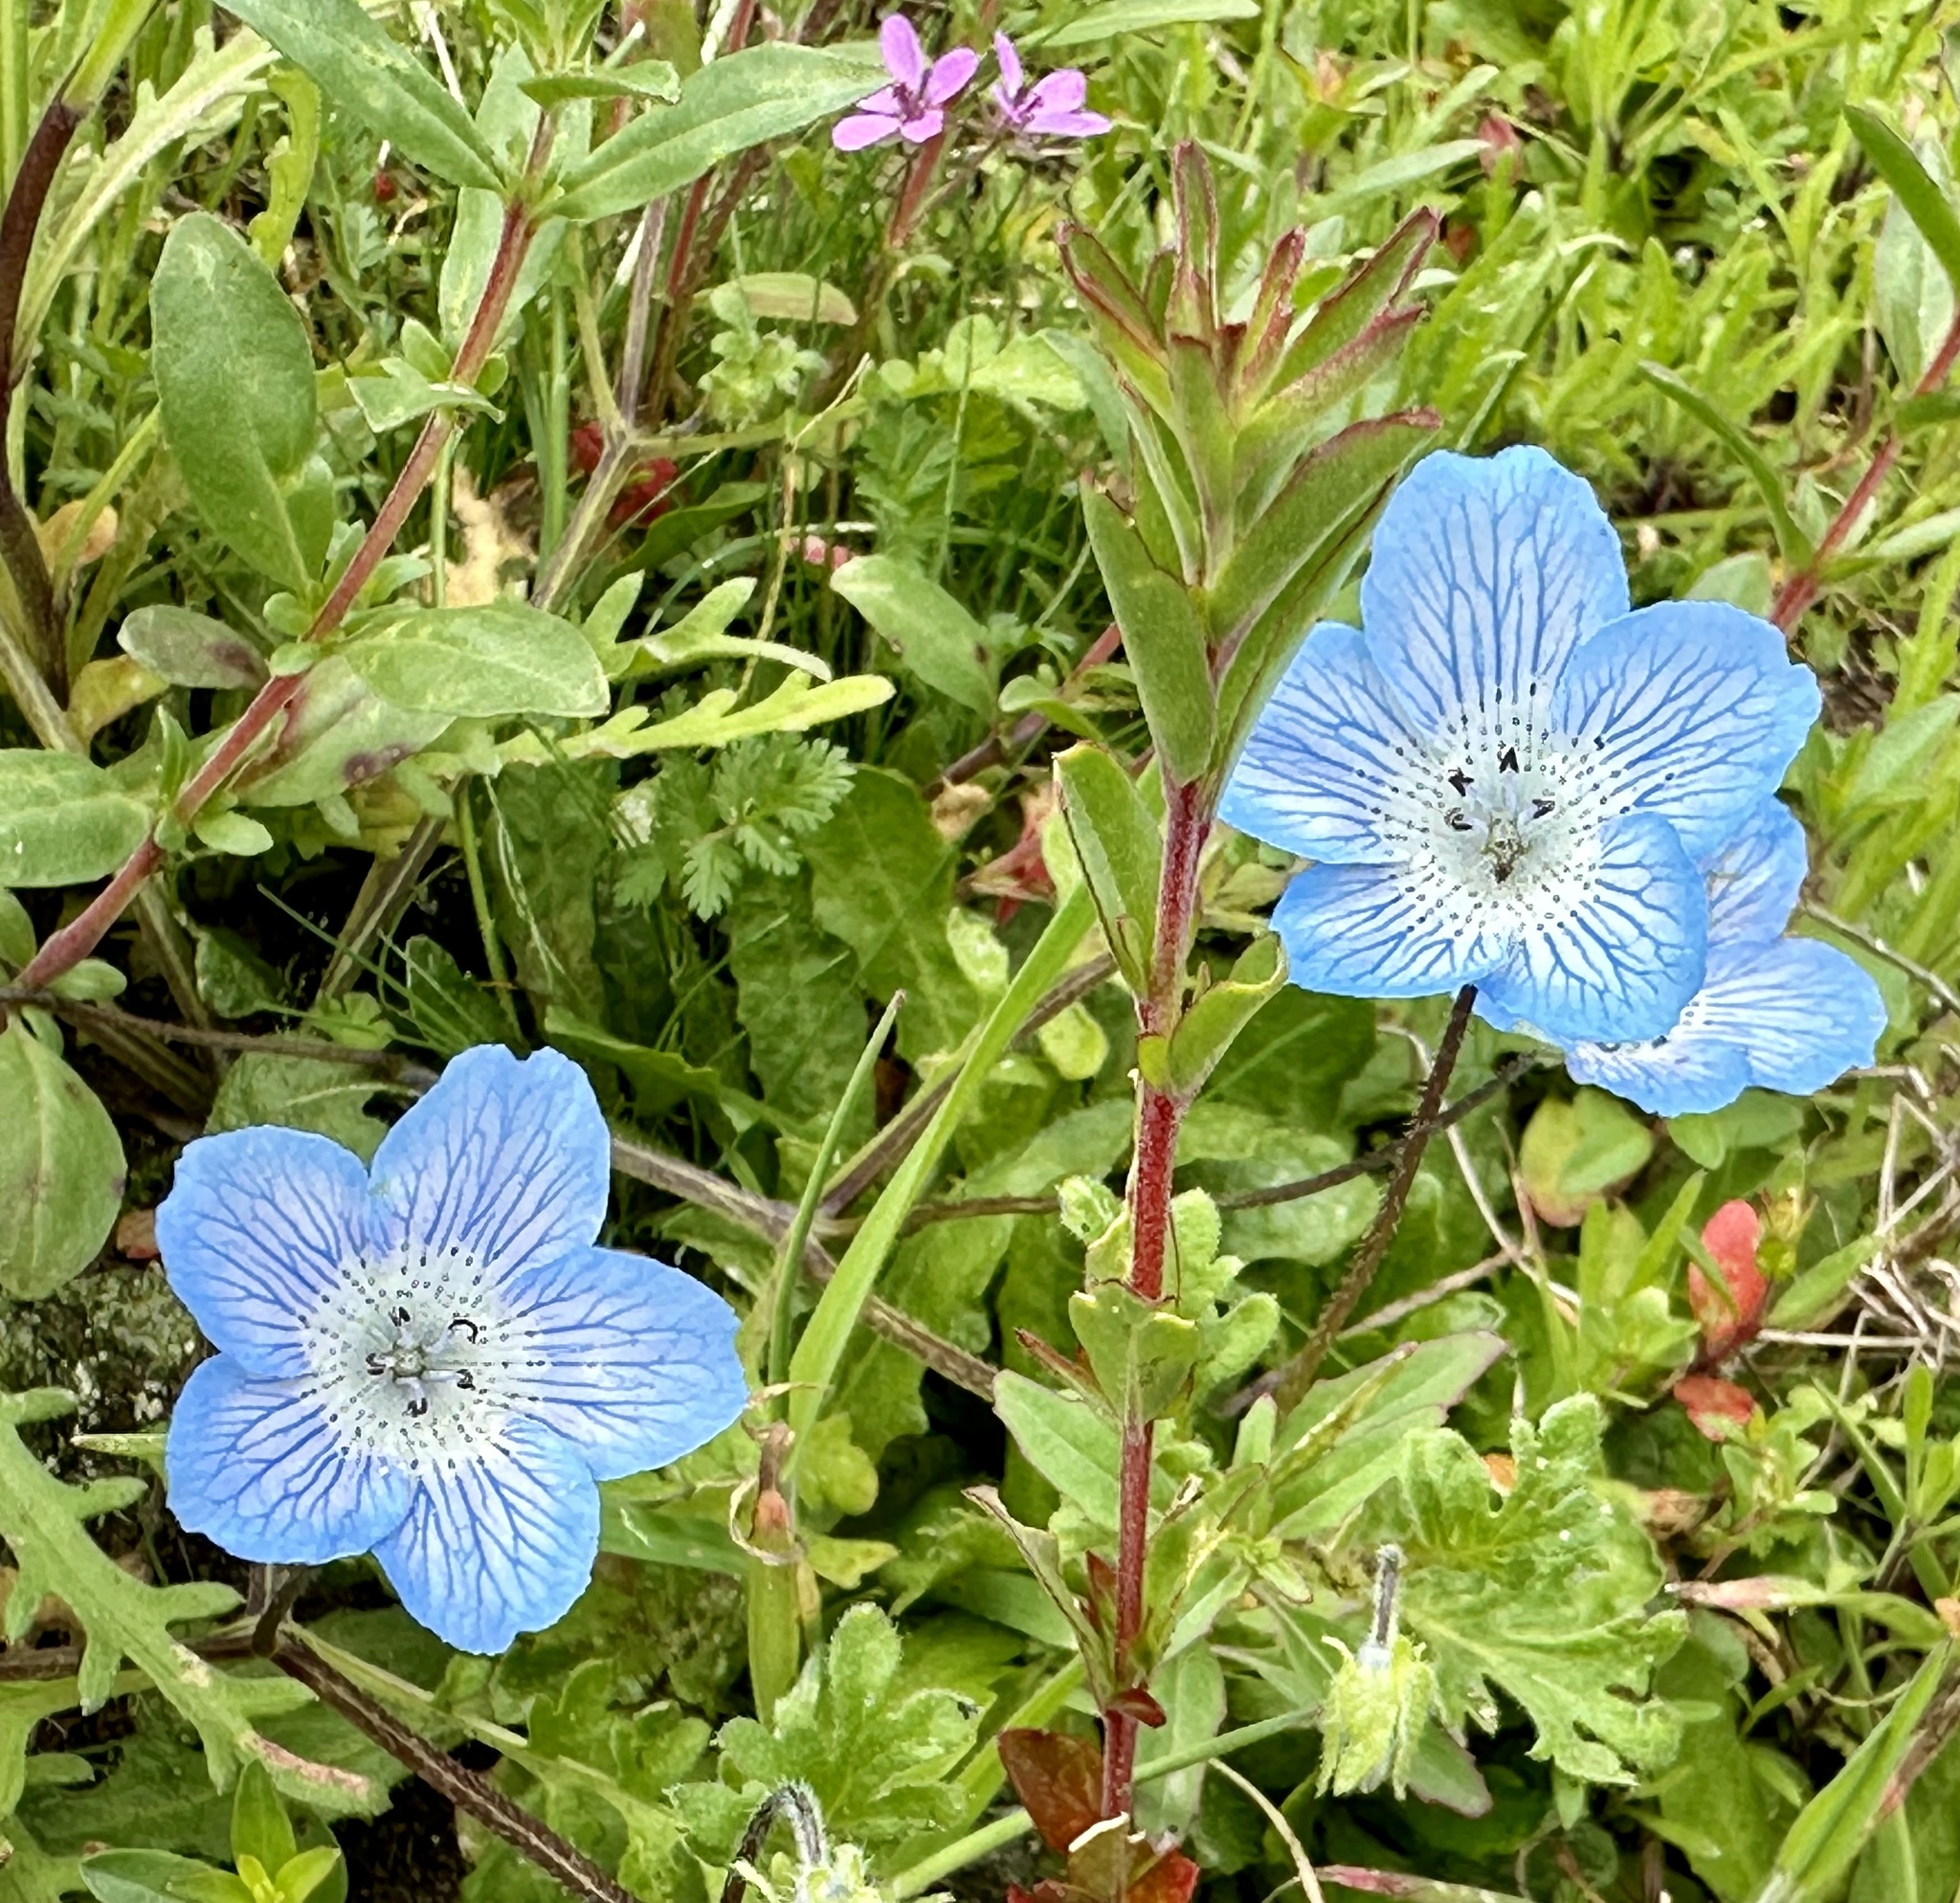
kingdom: Plantae
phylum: Tracheophyta
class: Magnoliopsida
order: Boraginales
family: Hydrophyllaceae
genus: Nemophila
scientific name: Nemophila menziesii
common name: Baby's-blue-eyes
